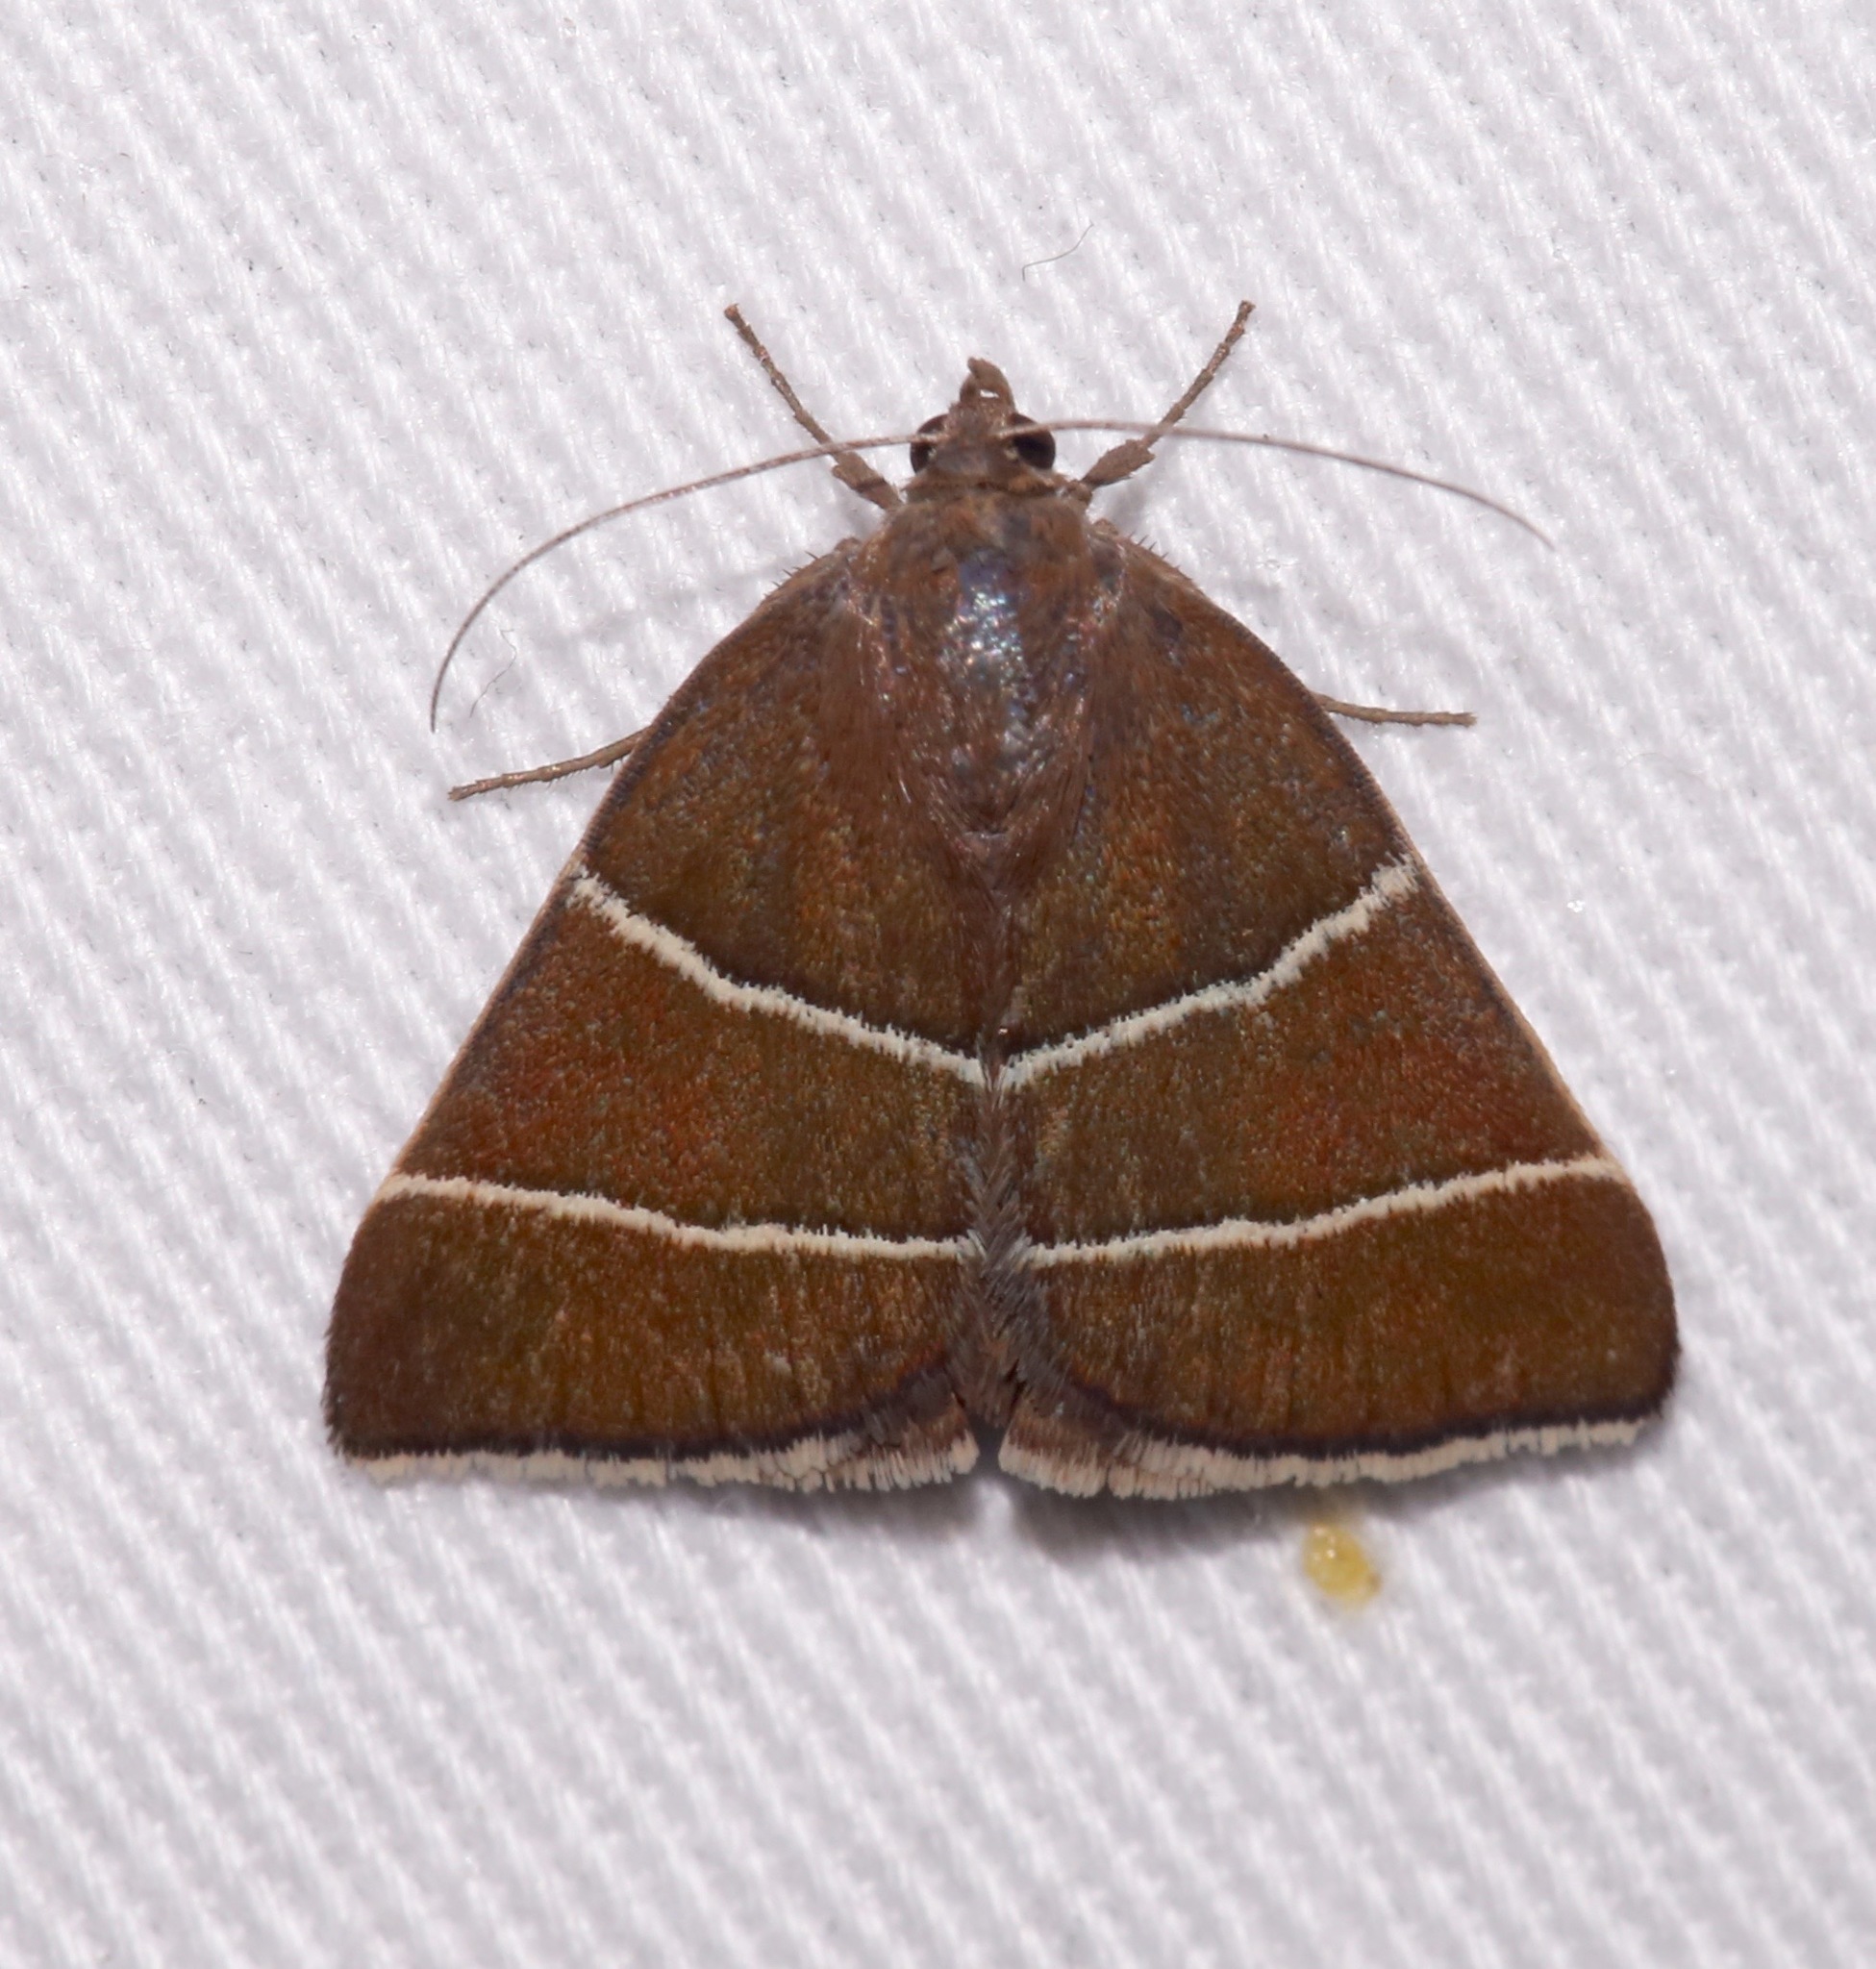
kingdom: Animalia
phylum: Arthropoda
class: Insecta
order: Lepidoptera
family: Erebidae
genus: Argyrostrotis
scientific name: Argyrostrotis quadrifilaris
